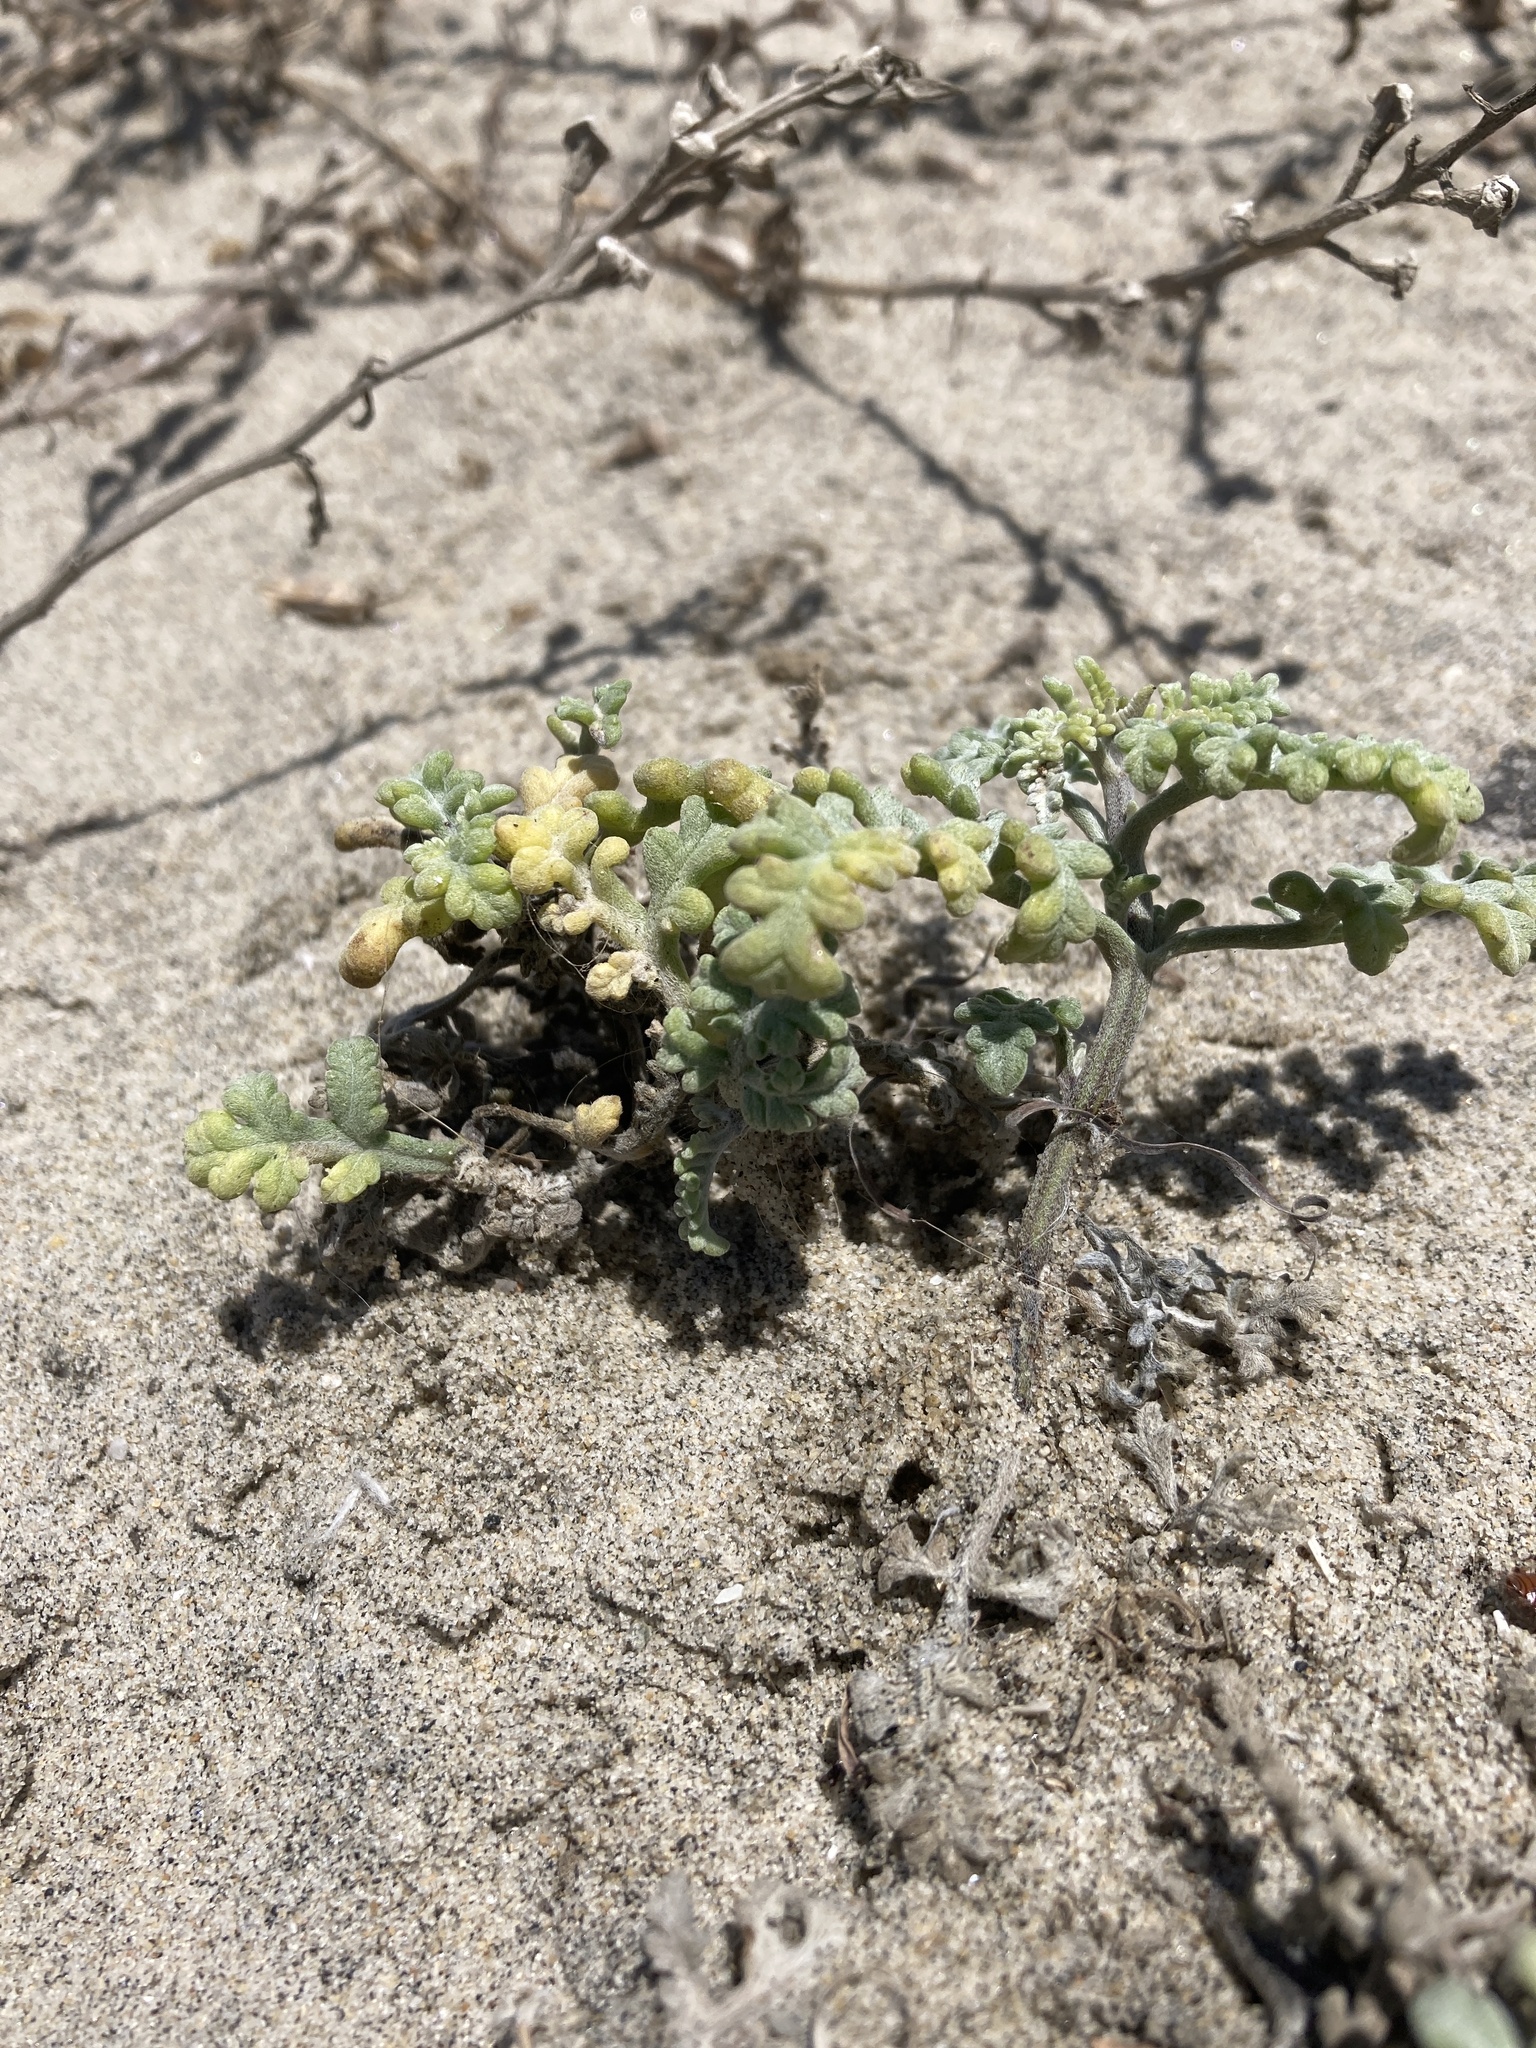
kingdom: Plantae
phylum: Tracheophyta
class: Magnoliopsida
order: Asterales
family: Asteraceae
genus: Ambrosia
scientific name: Ambrosia chamissonis
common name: Beachbur
